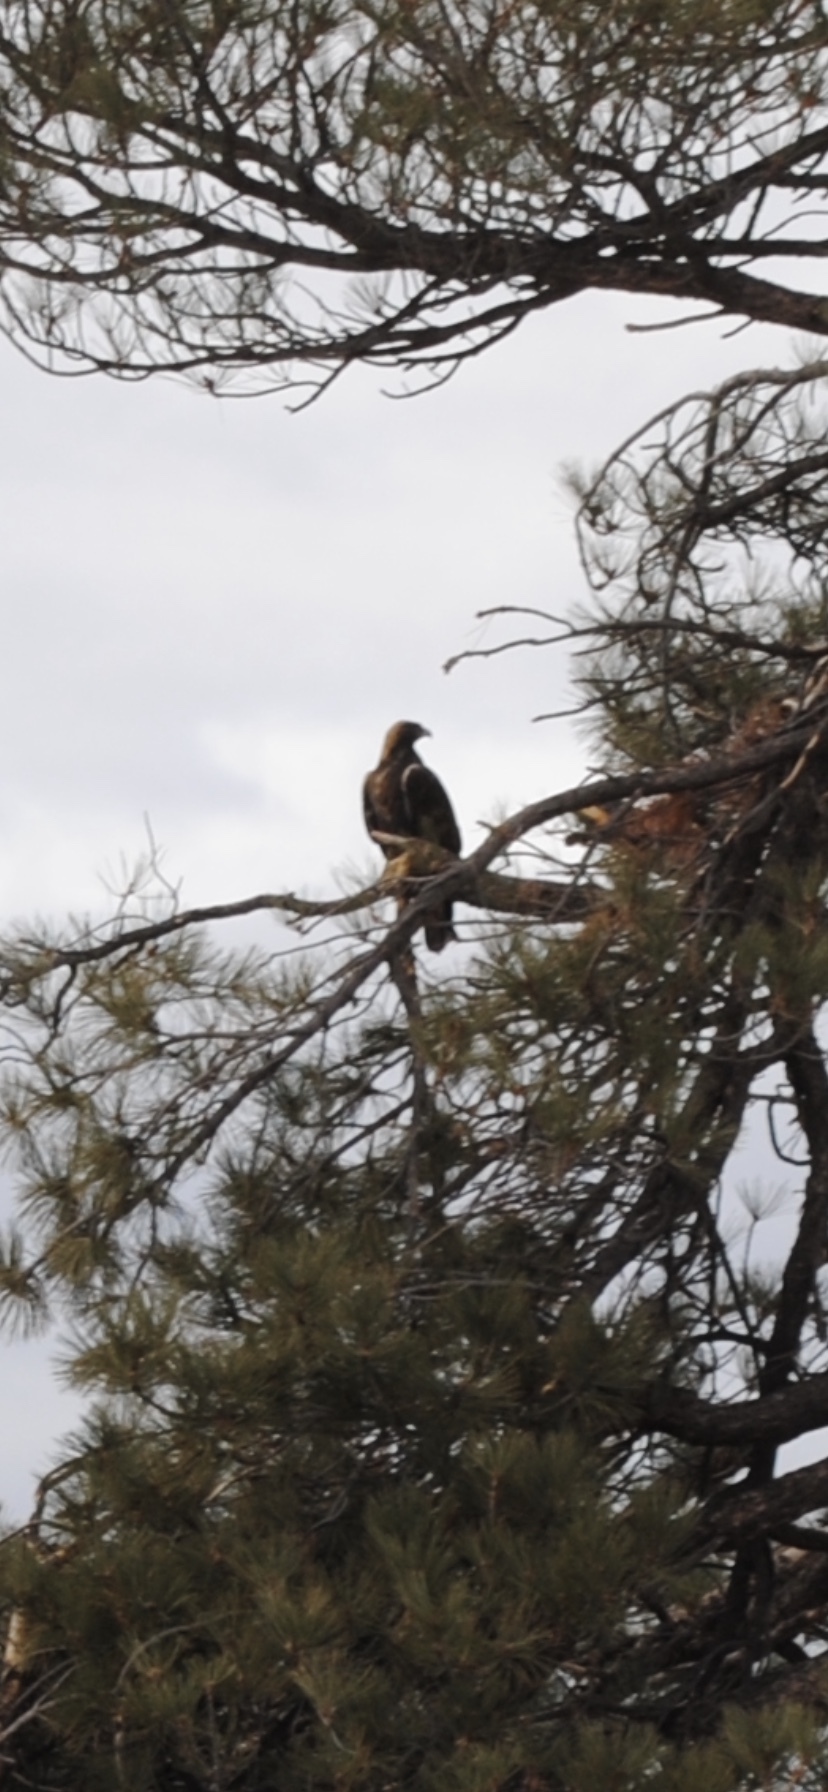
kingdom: Animalia
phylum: Chordata
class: Aves
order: Accipitriformes
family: Accipitridae
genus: Aquila
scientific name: Aquila chrysaetos
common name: Golden eagle
